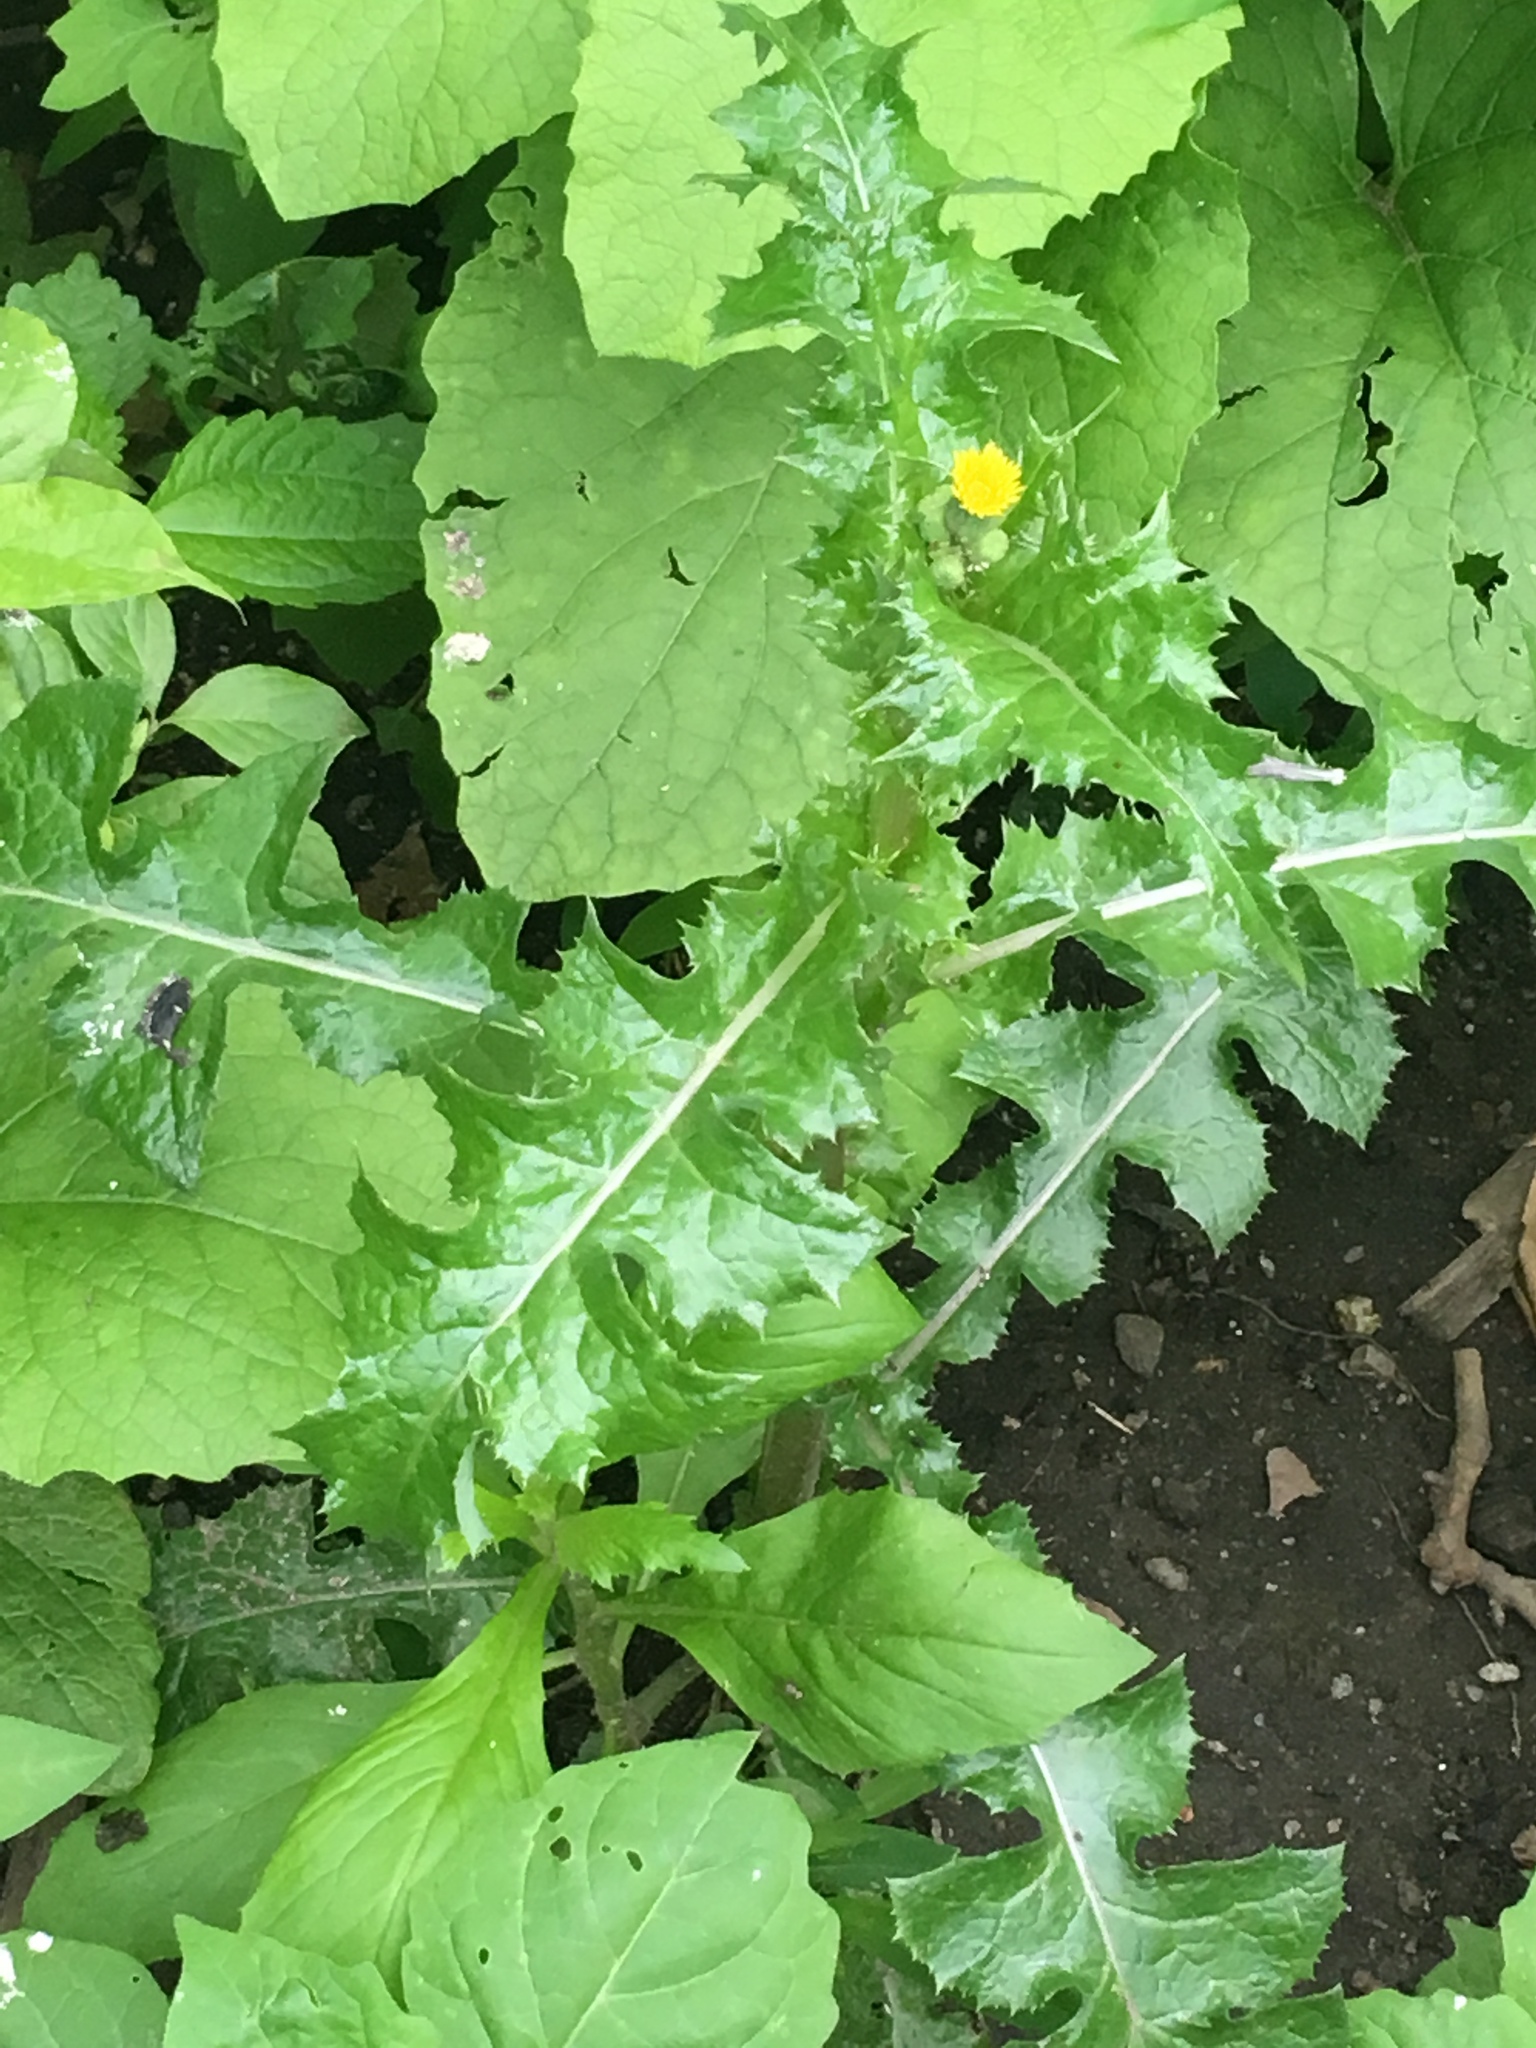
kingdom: Plantae
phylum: Tracheophyta
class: Magnoliopsida
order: Asterales
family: Asteraceae
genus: Sonchus
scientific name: Sonchus asper
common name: Prickly sow-thistle
